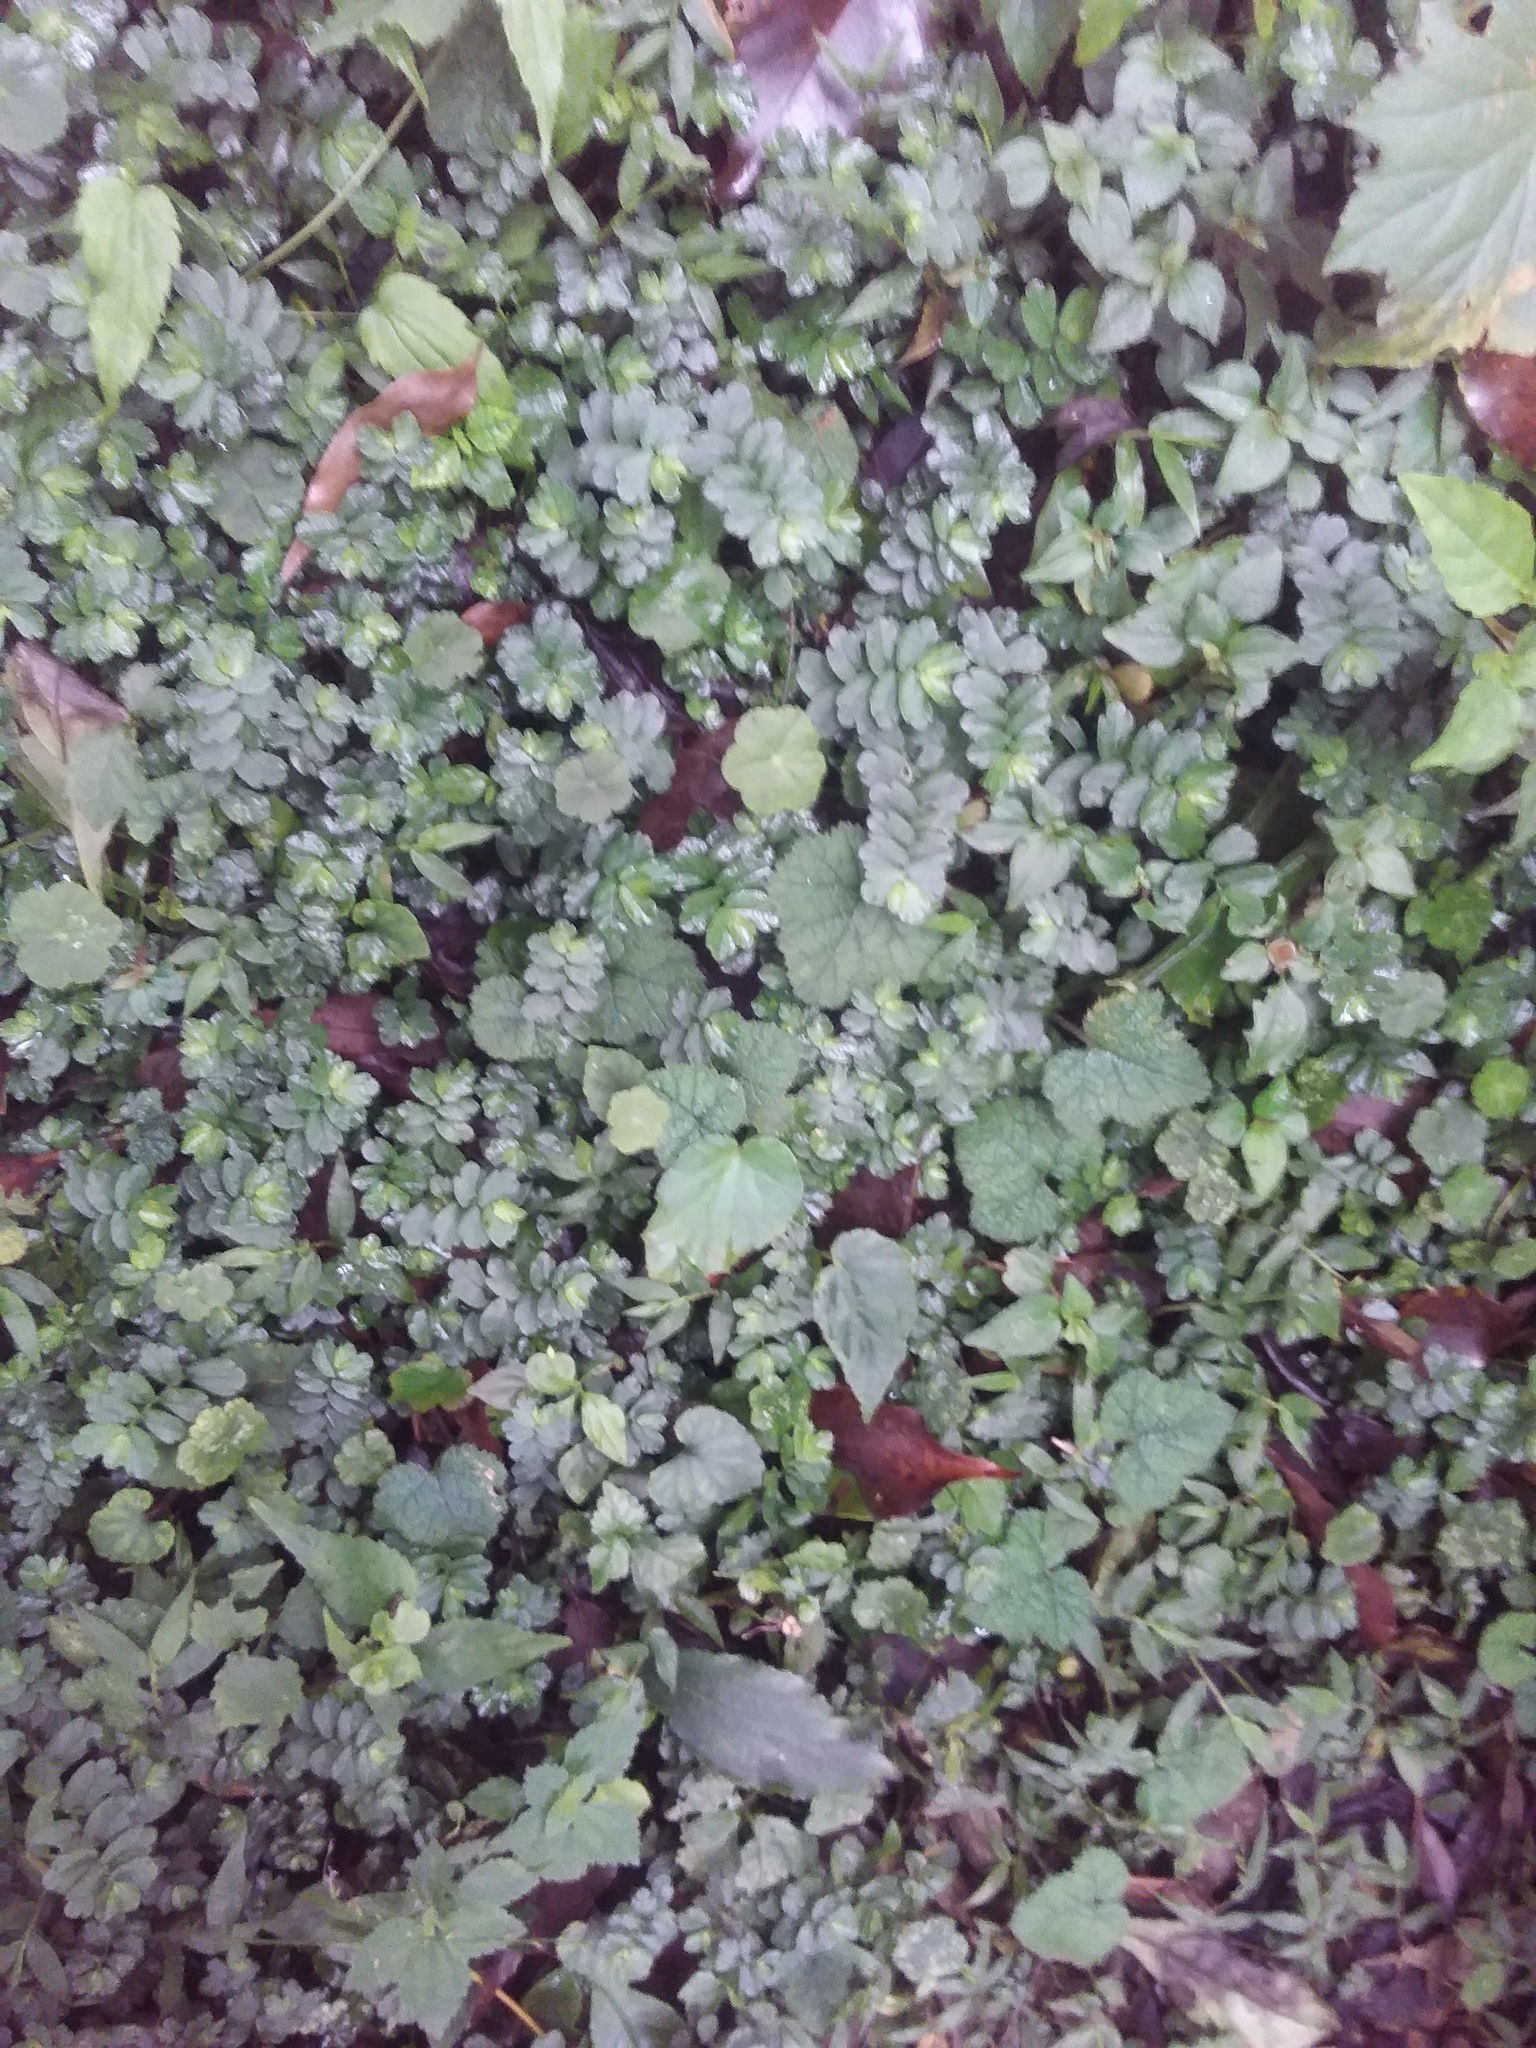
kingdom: Plantae
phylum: Tracheophyta
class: Magnoliopsida
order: Rosales
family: Urticaceae
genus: Elatostema
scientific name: Elatostema obtusum
